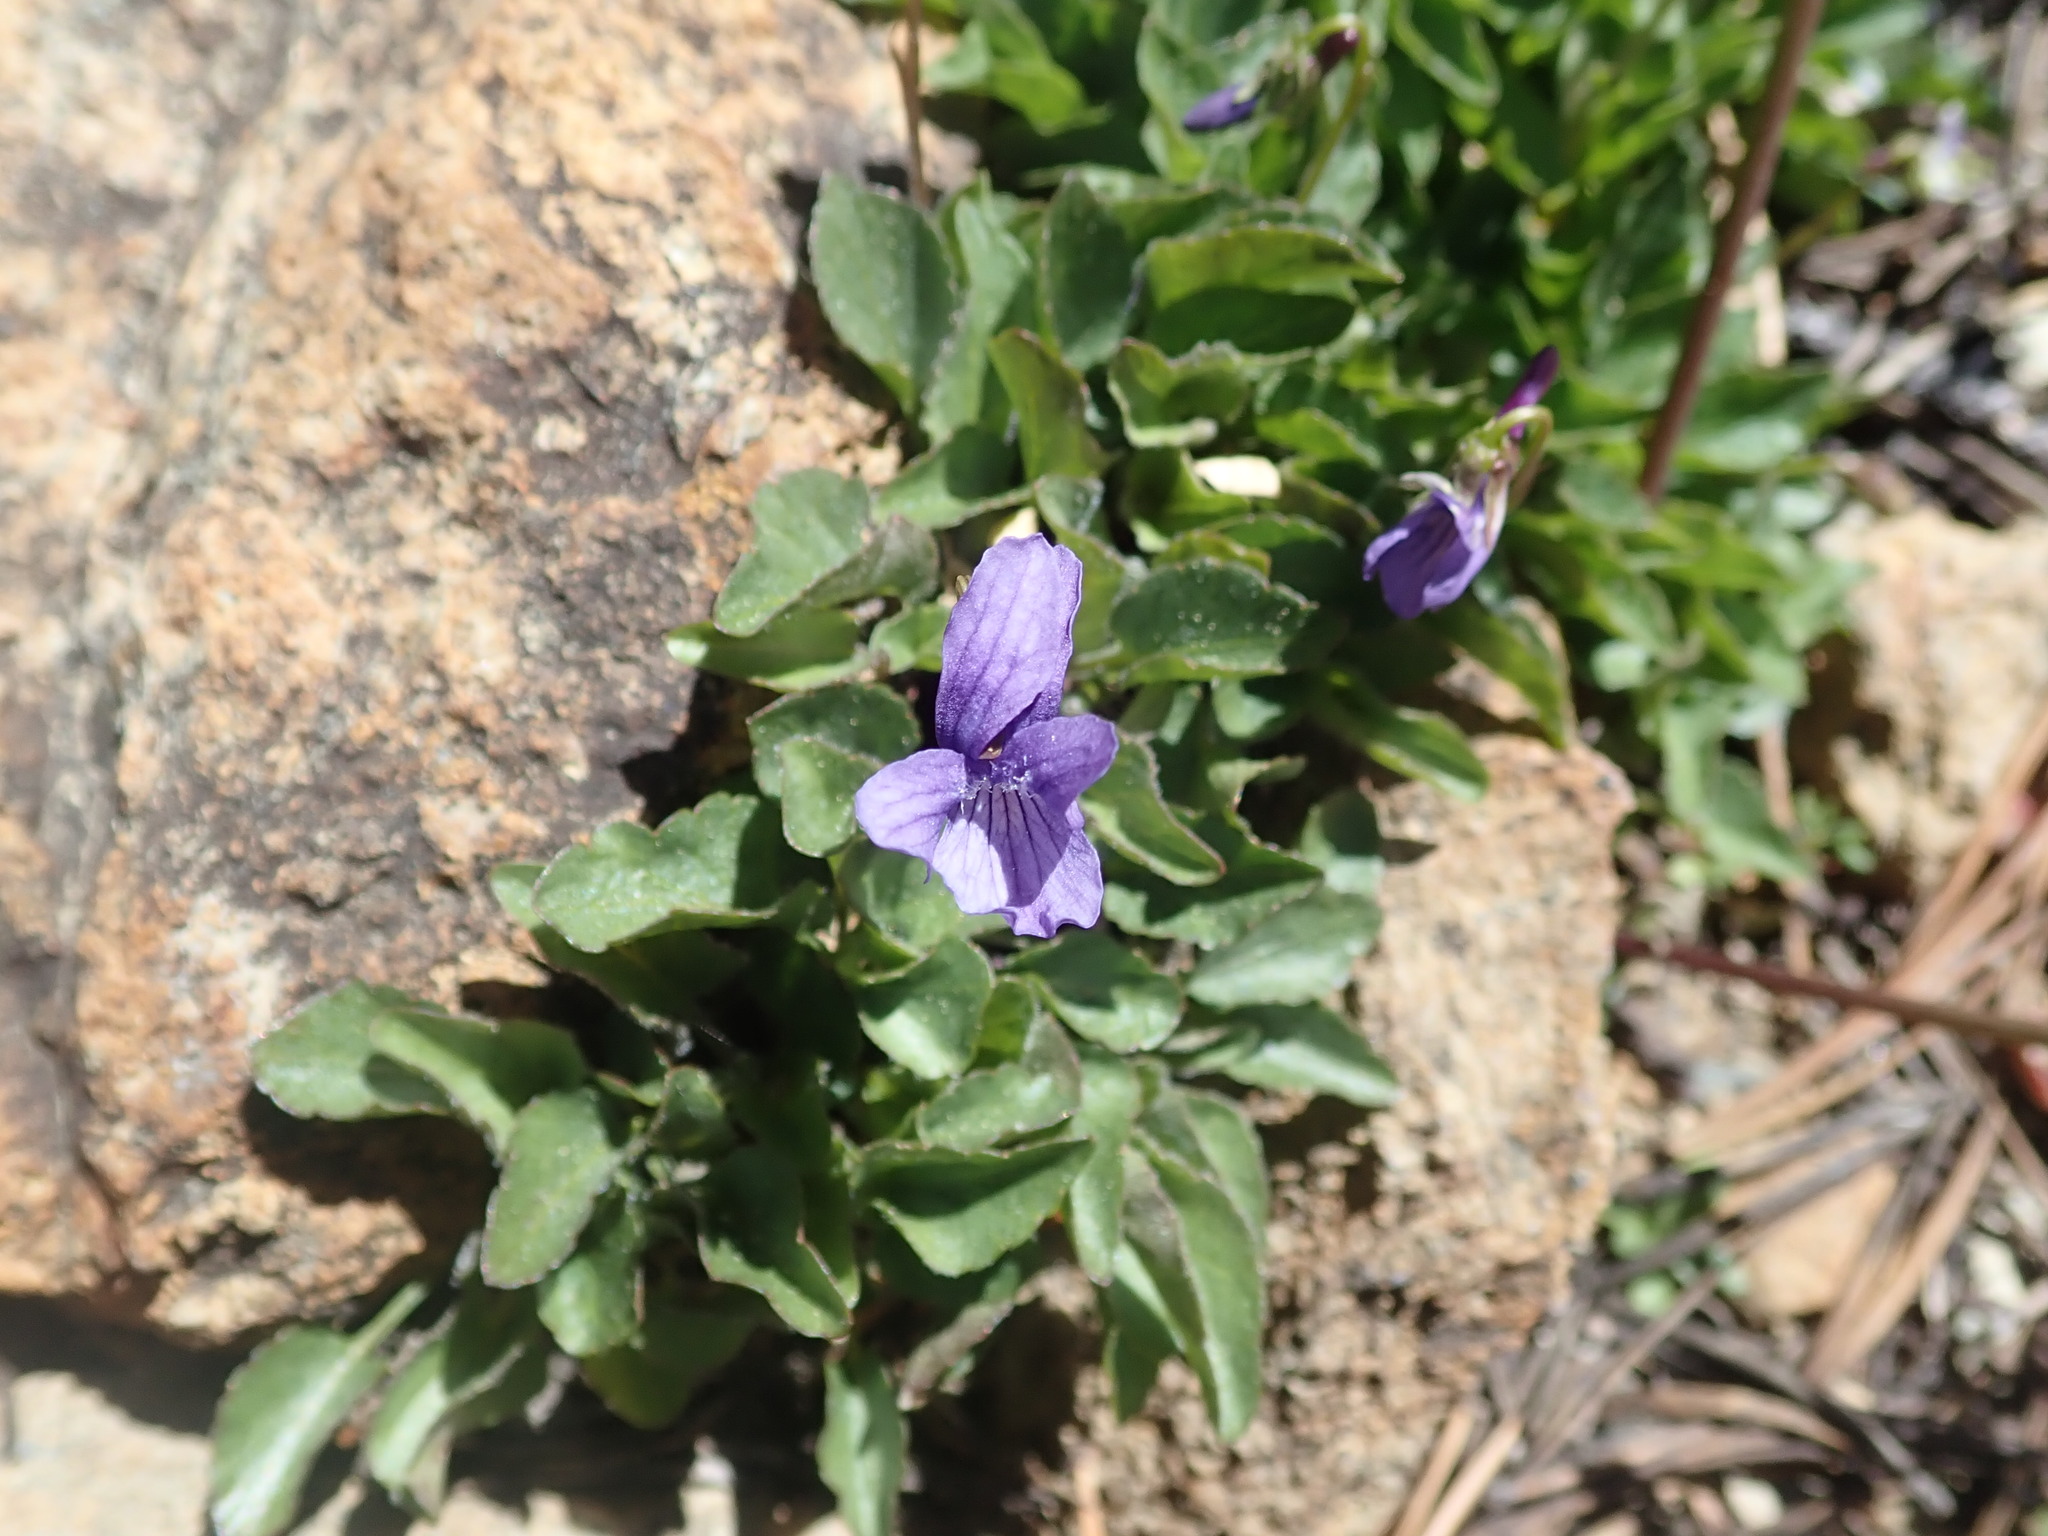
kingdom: Plantae
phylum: Tracheophyta
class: Magnoliopsida
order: Malpighiales
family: Violaceae
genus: Viola
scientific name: Viola adunca
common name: Sand violet
